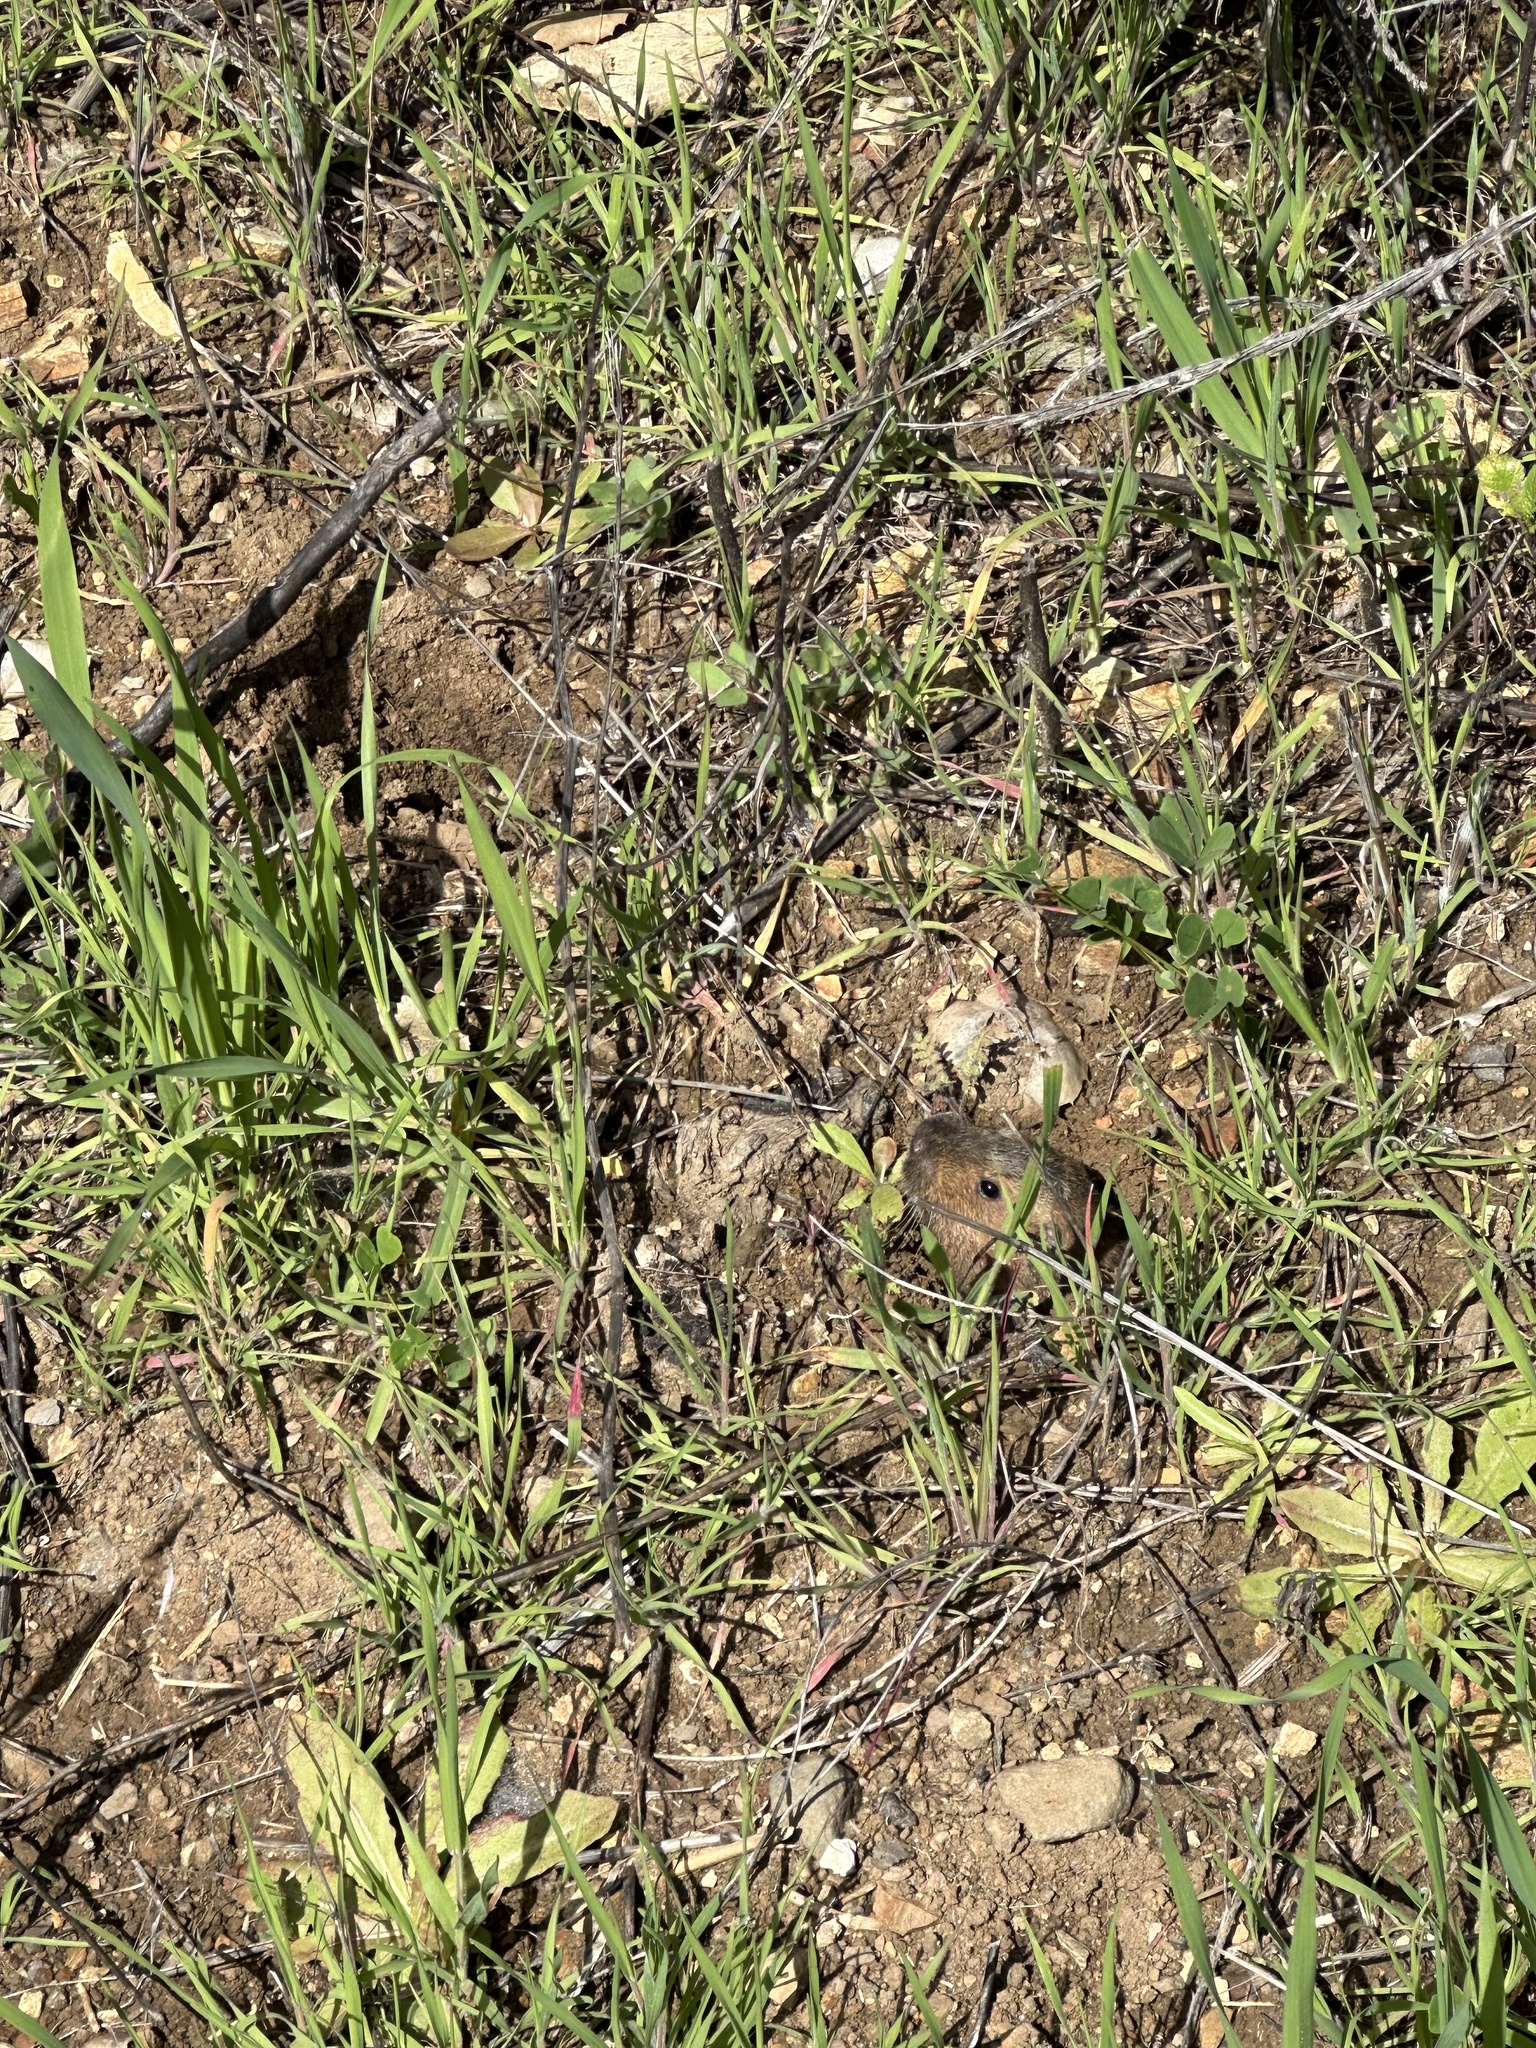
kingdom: Animalia
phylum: Chordata
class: Mammalia
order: Rodentia
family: Geomyidae
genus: Thomomys
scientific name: Thomomys bottae
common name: Botta's pocket gopher
